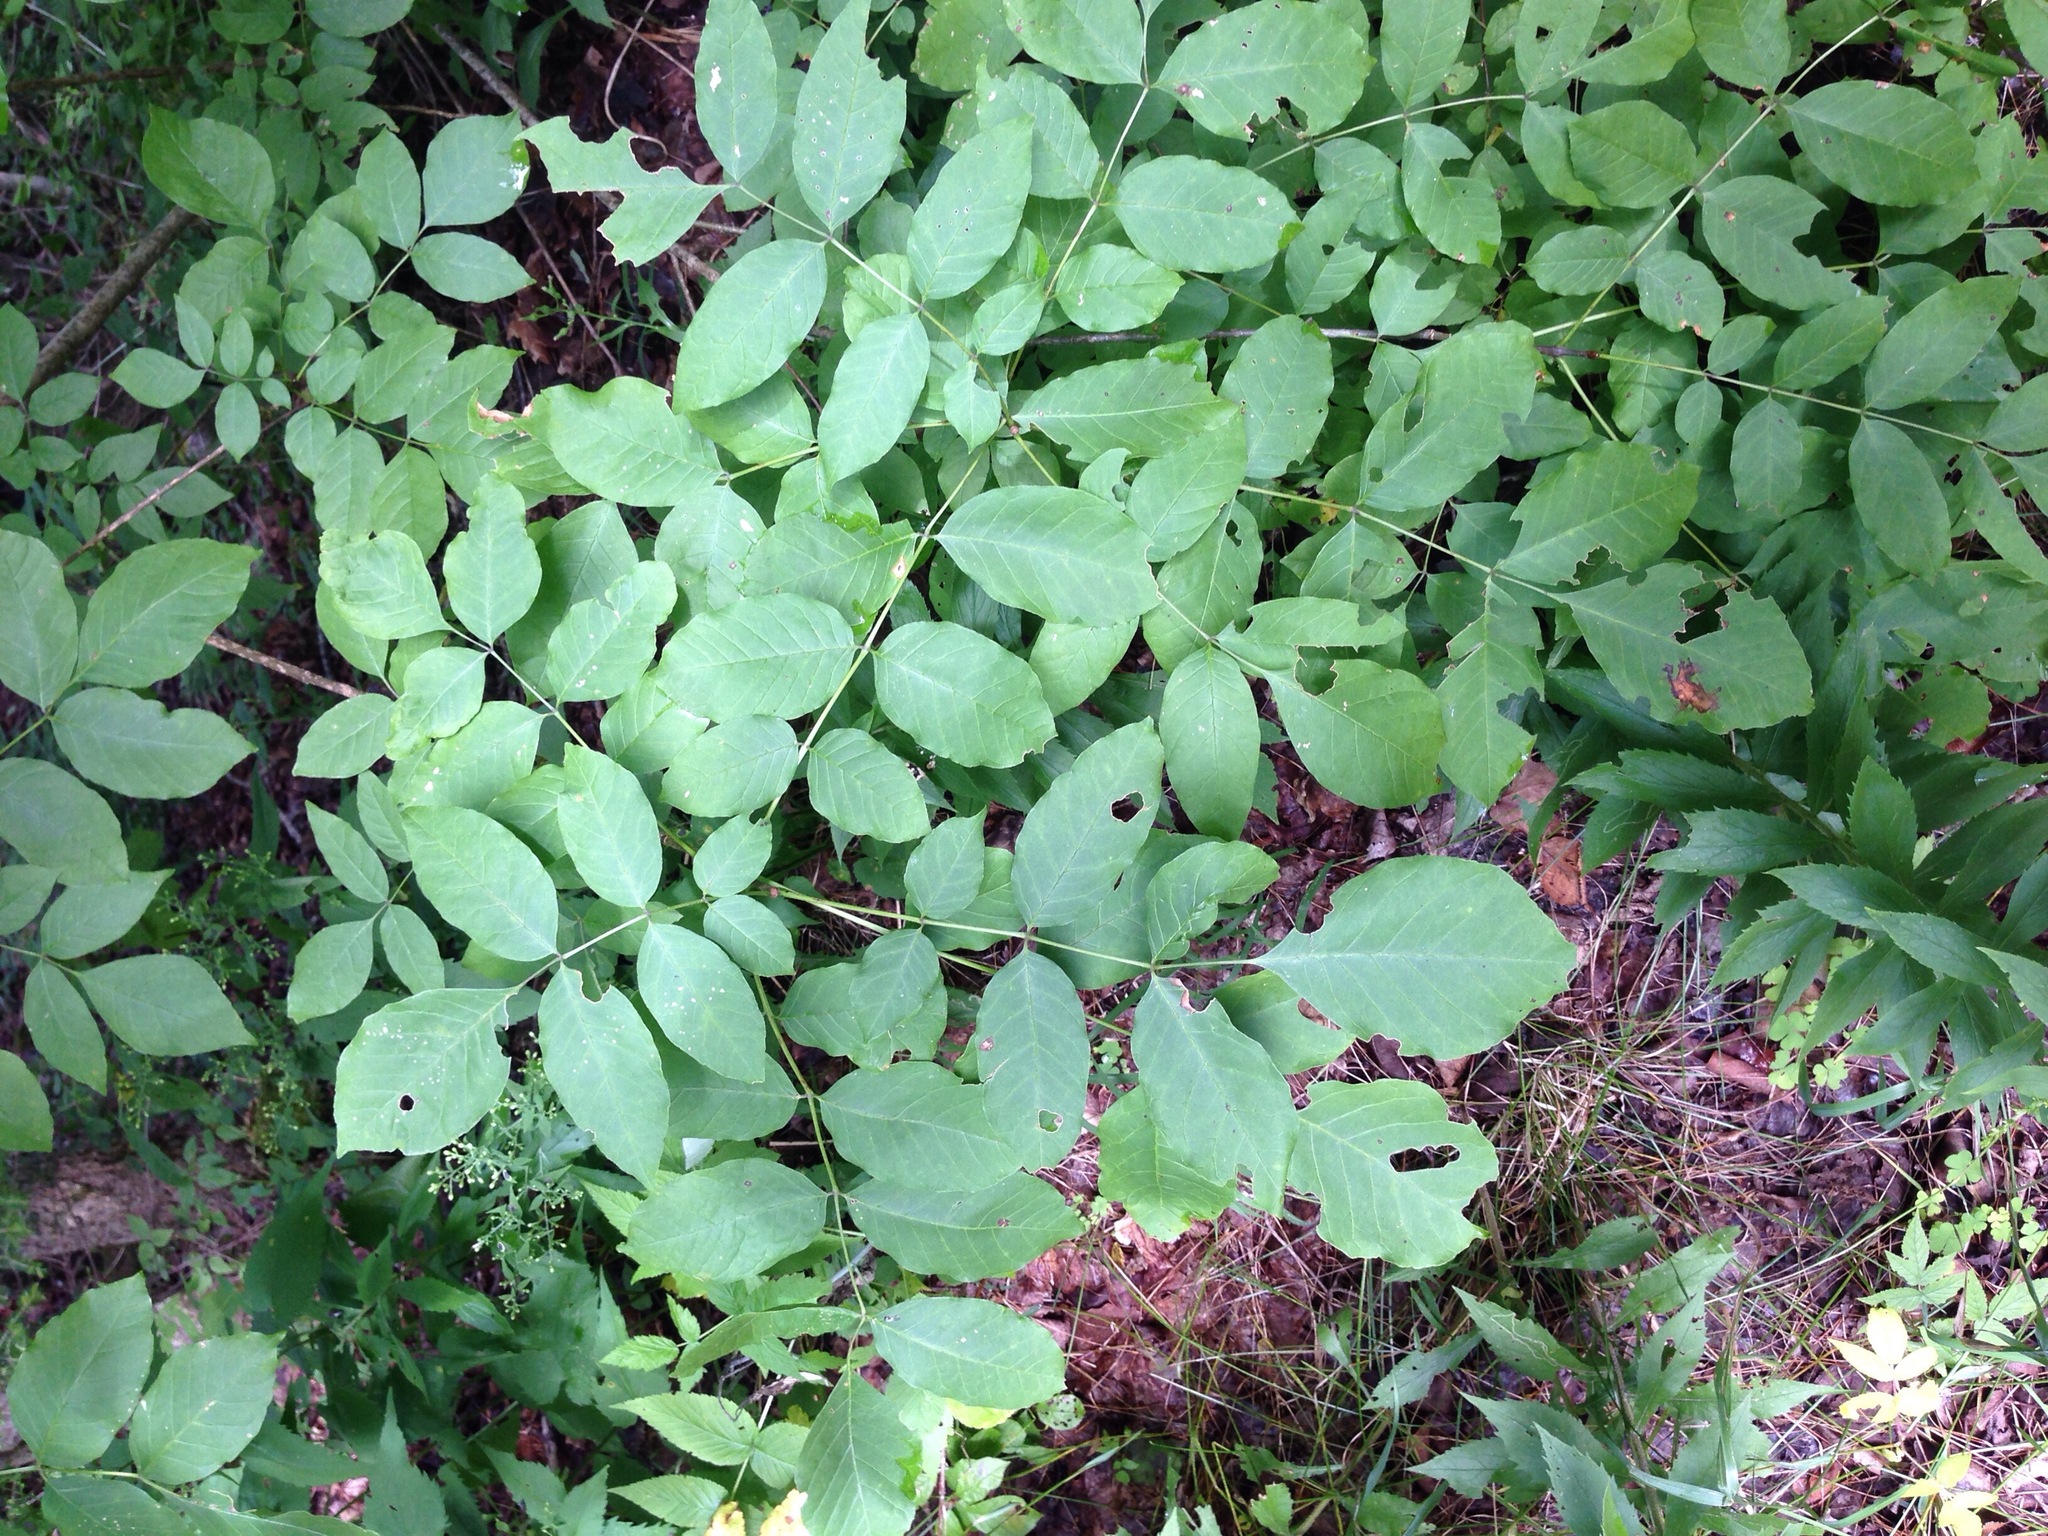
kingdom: Plantae
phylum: Tracheophyta
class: Magnoliopsida
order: Lamiales
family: Oleaceae
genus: Fraxinus
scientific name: Fraxinus americana
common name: White ash
